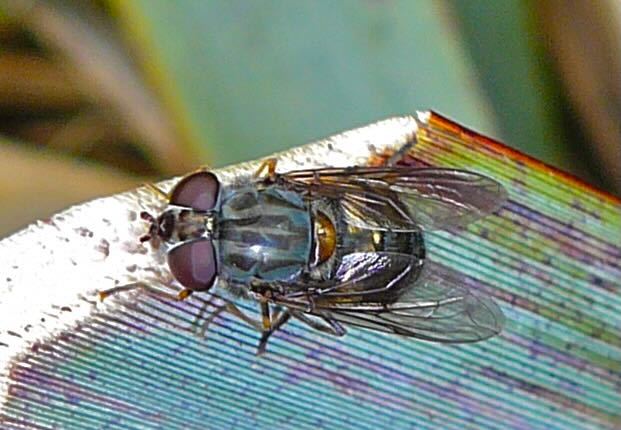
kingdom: Animalia
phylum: Arthropoda
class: Insecta
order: Diptera
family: Syrphidae
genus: Helophilus
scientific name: Helophilus campbellicus
